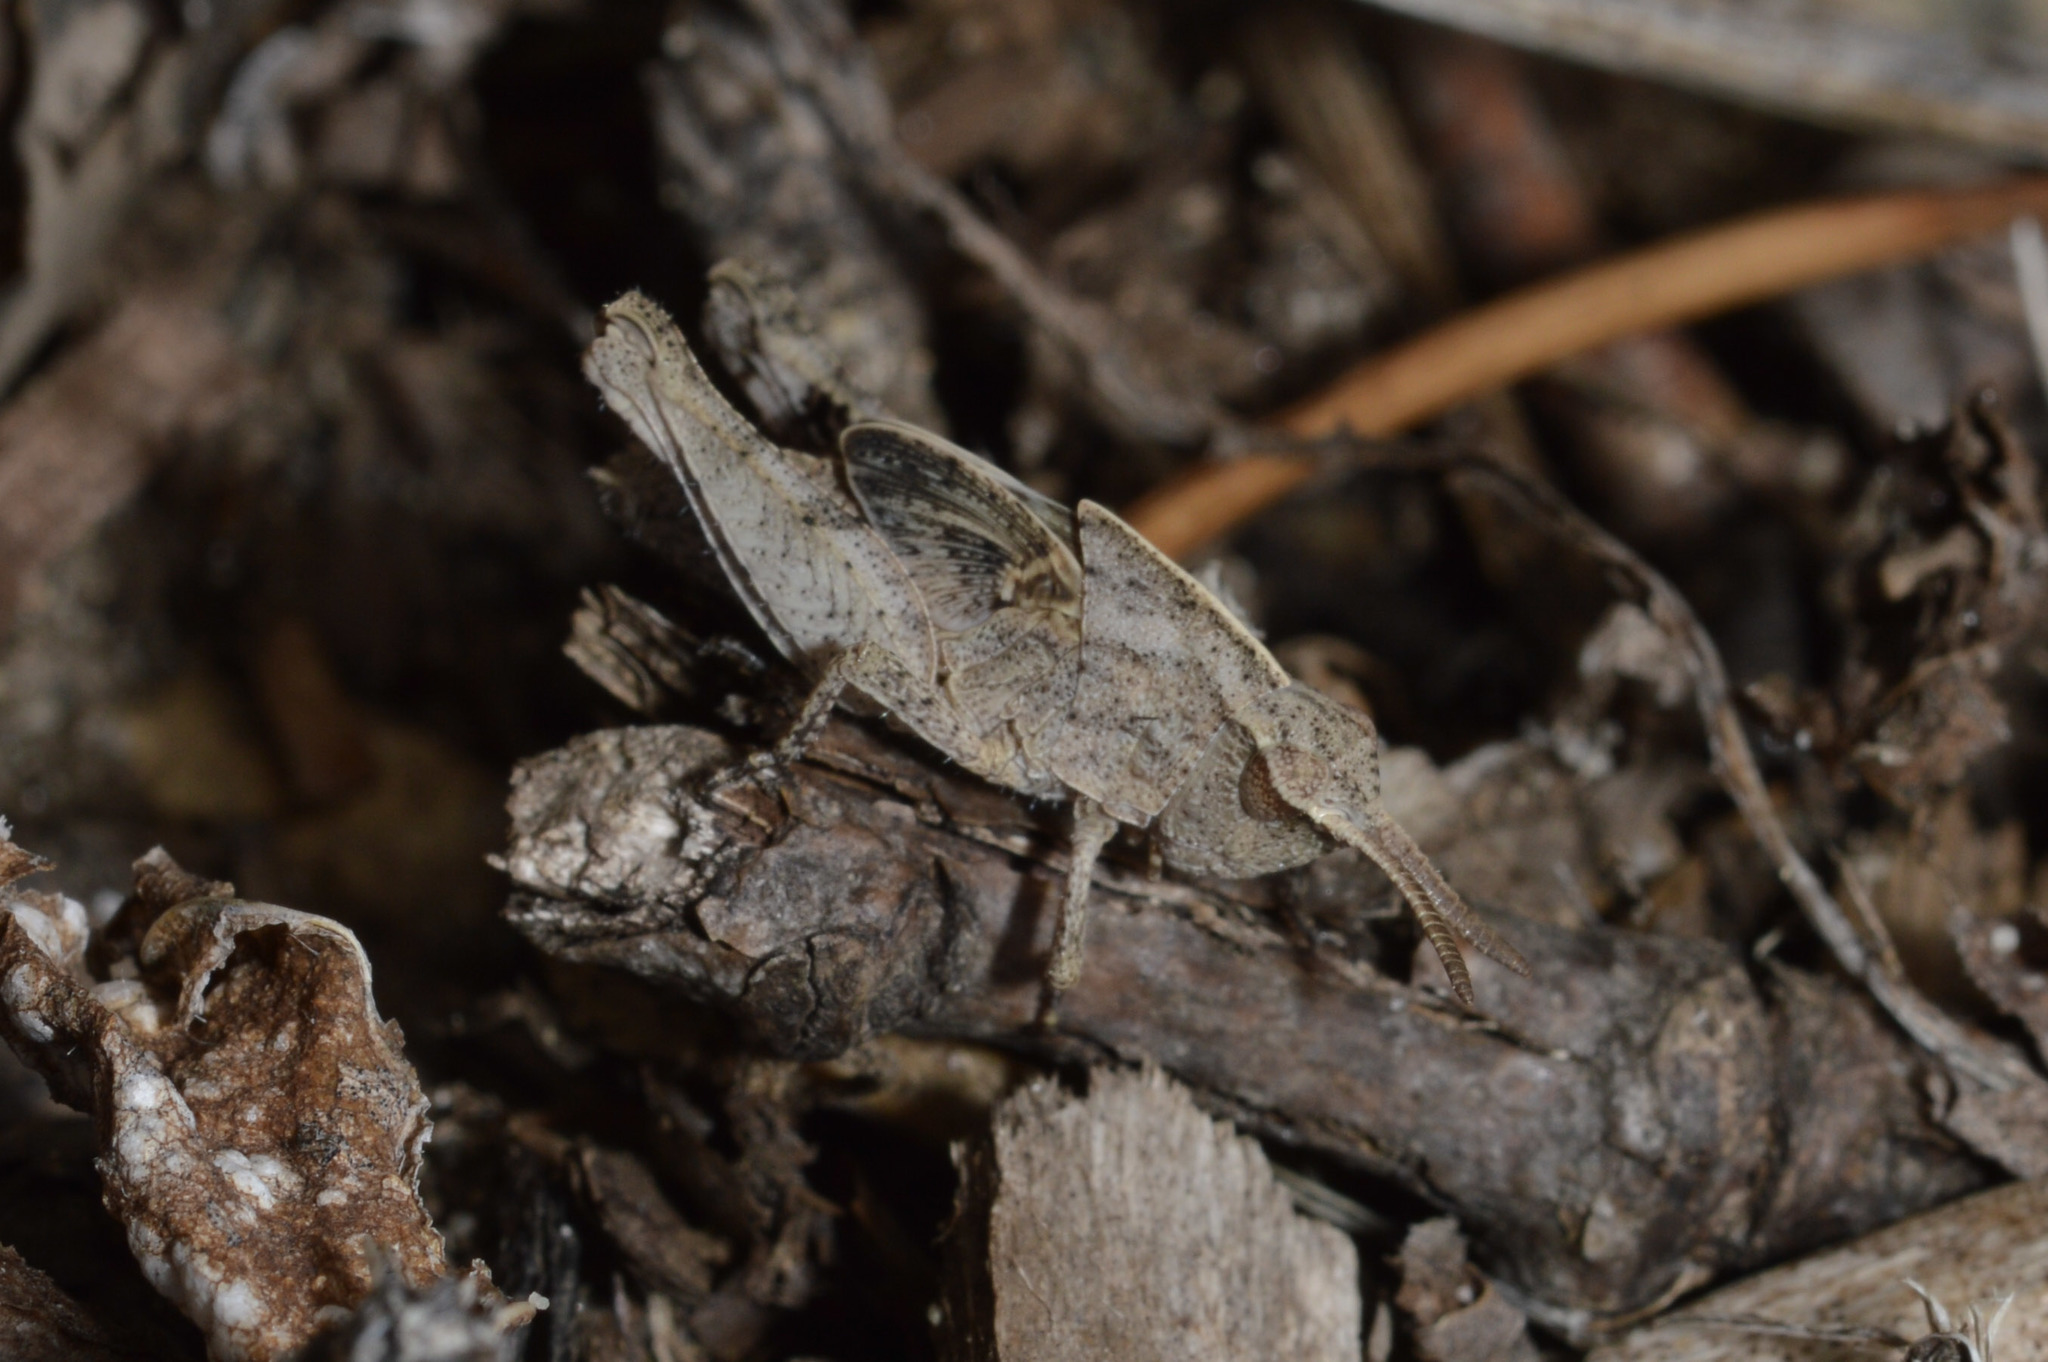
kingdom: Animalia
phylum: Arthropoda
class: Insecta
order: Orthoptera
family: Acrididae
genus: Chortophaga
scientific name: Chortophaga viridifasciata
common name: Green-striped grasshopper
